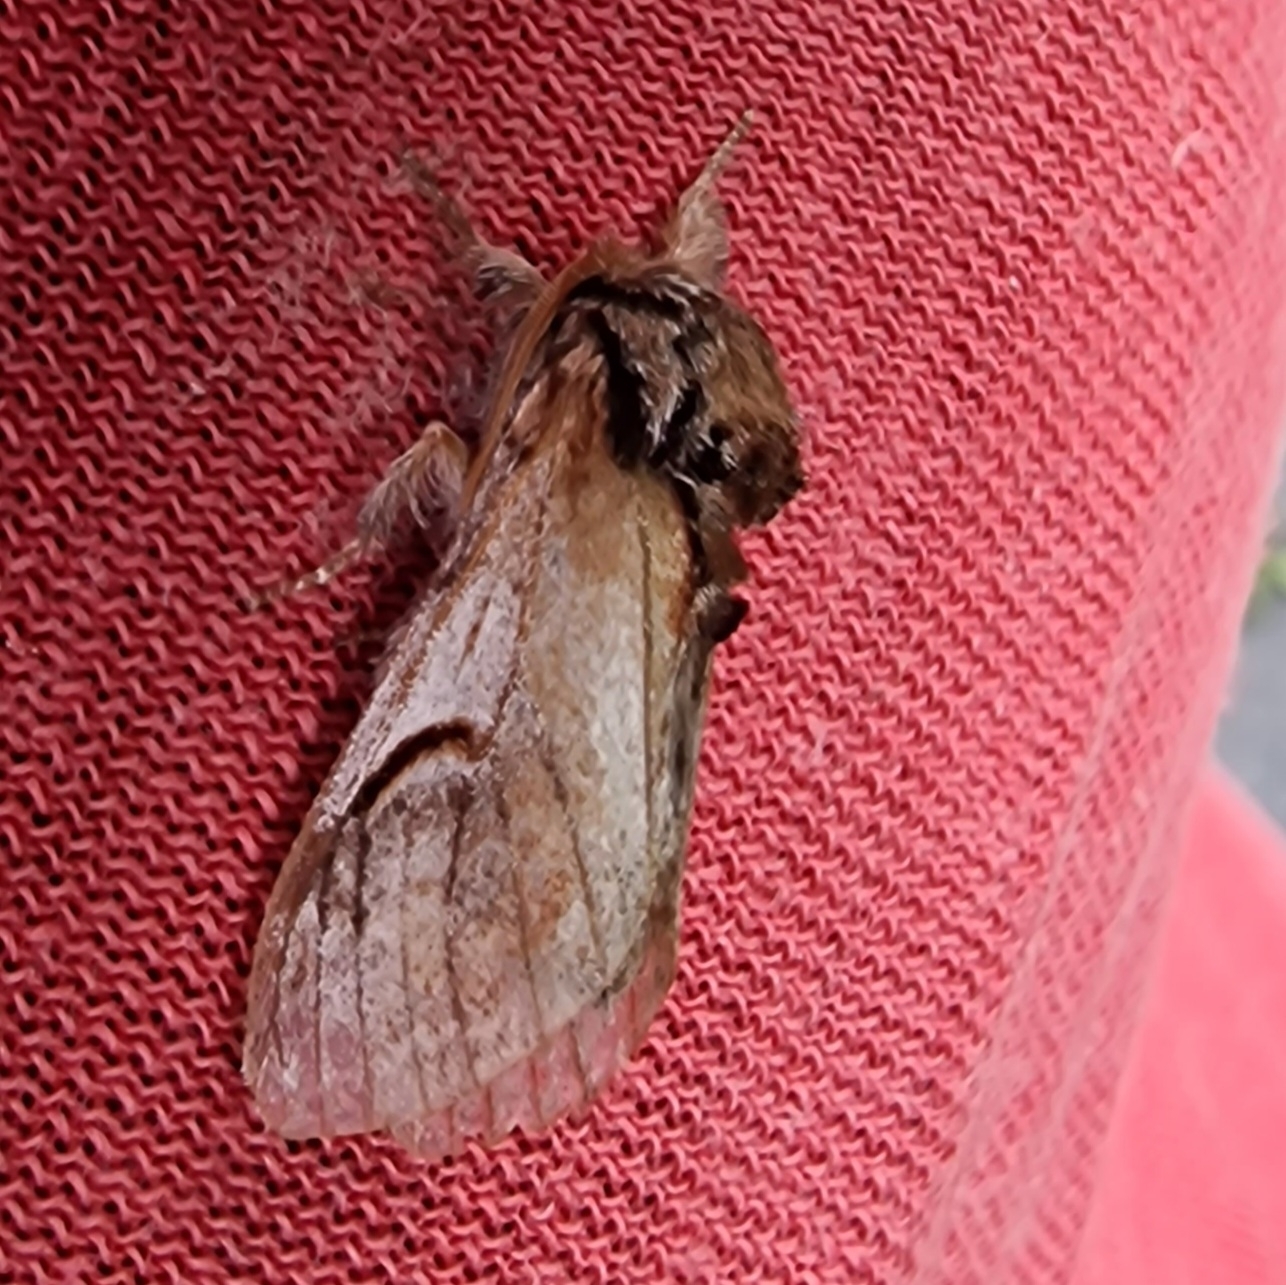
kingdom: Animalia
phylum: Arthropoda
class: Insecta
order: Lepidoptera
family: Notodontidae
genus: Notodonta
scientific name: Notodonta ziczac
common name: Pebble prominent
